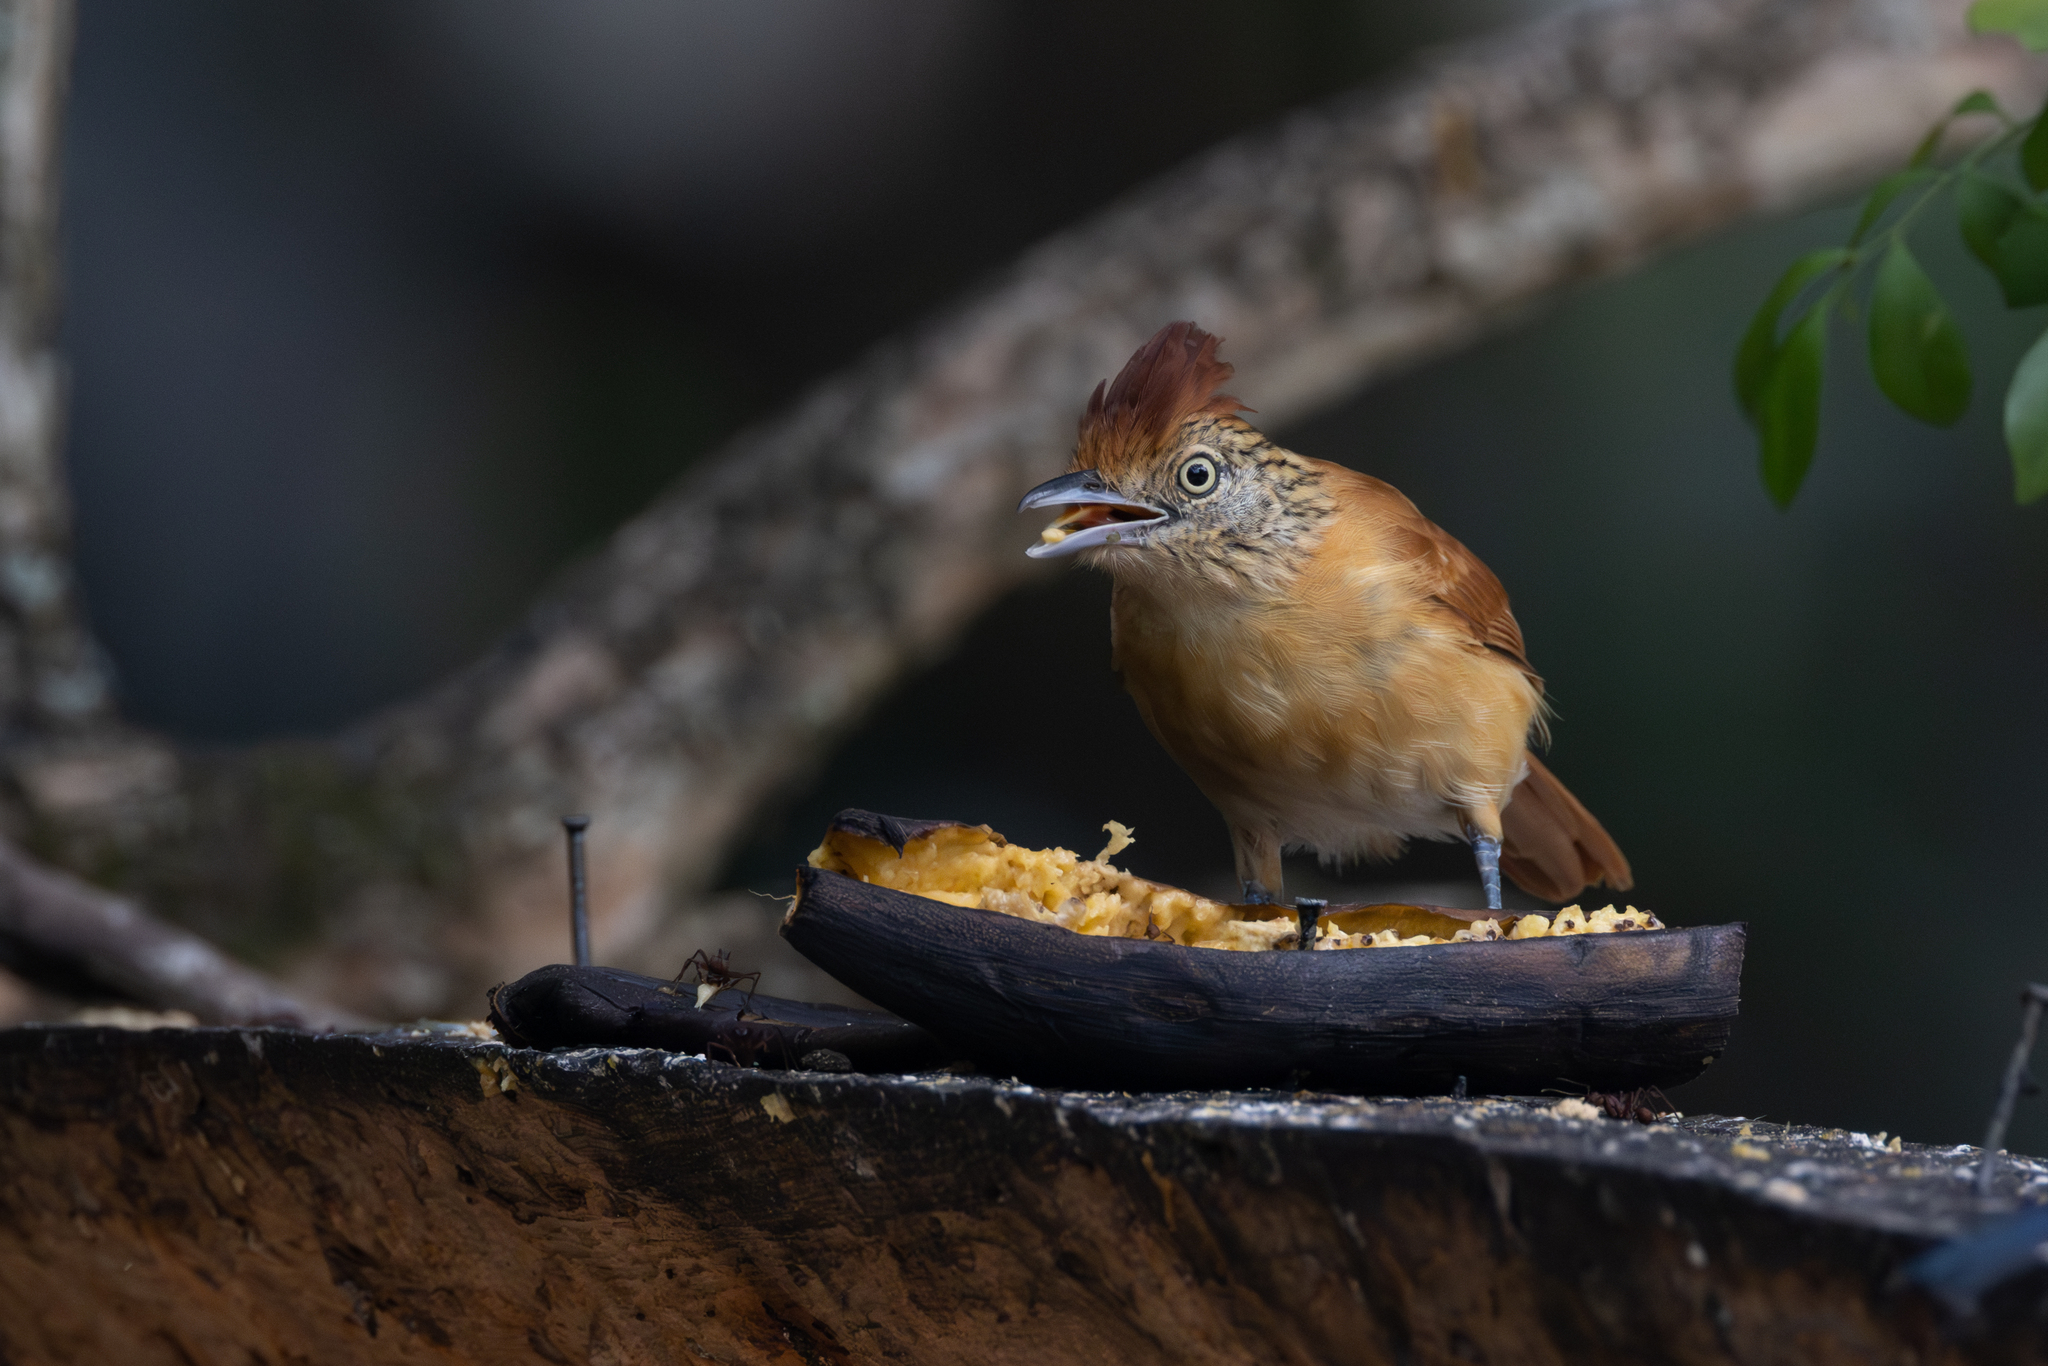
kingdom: Animalia
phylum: Chordata
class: Aves
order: Passeriformes
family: Thamnophilidae
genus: Thamnophilus
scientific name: Thamnophilus doliatus
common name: Barred antshrike
